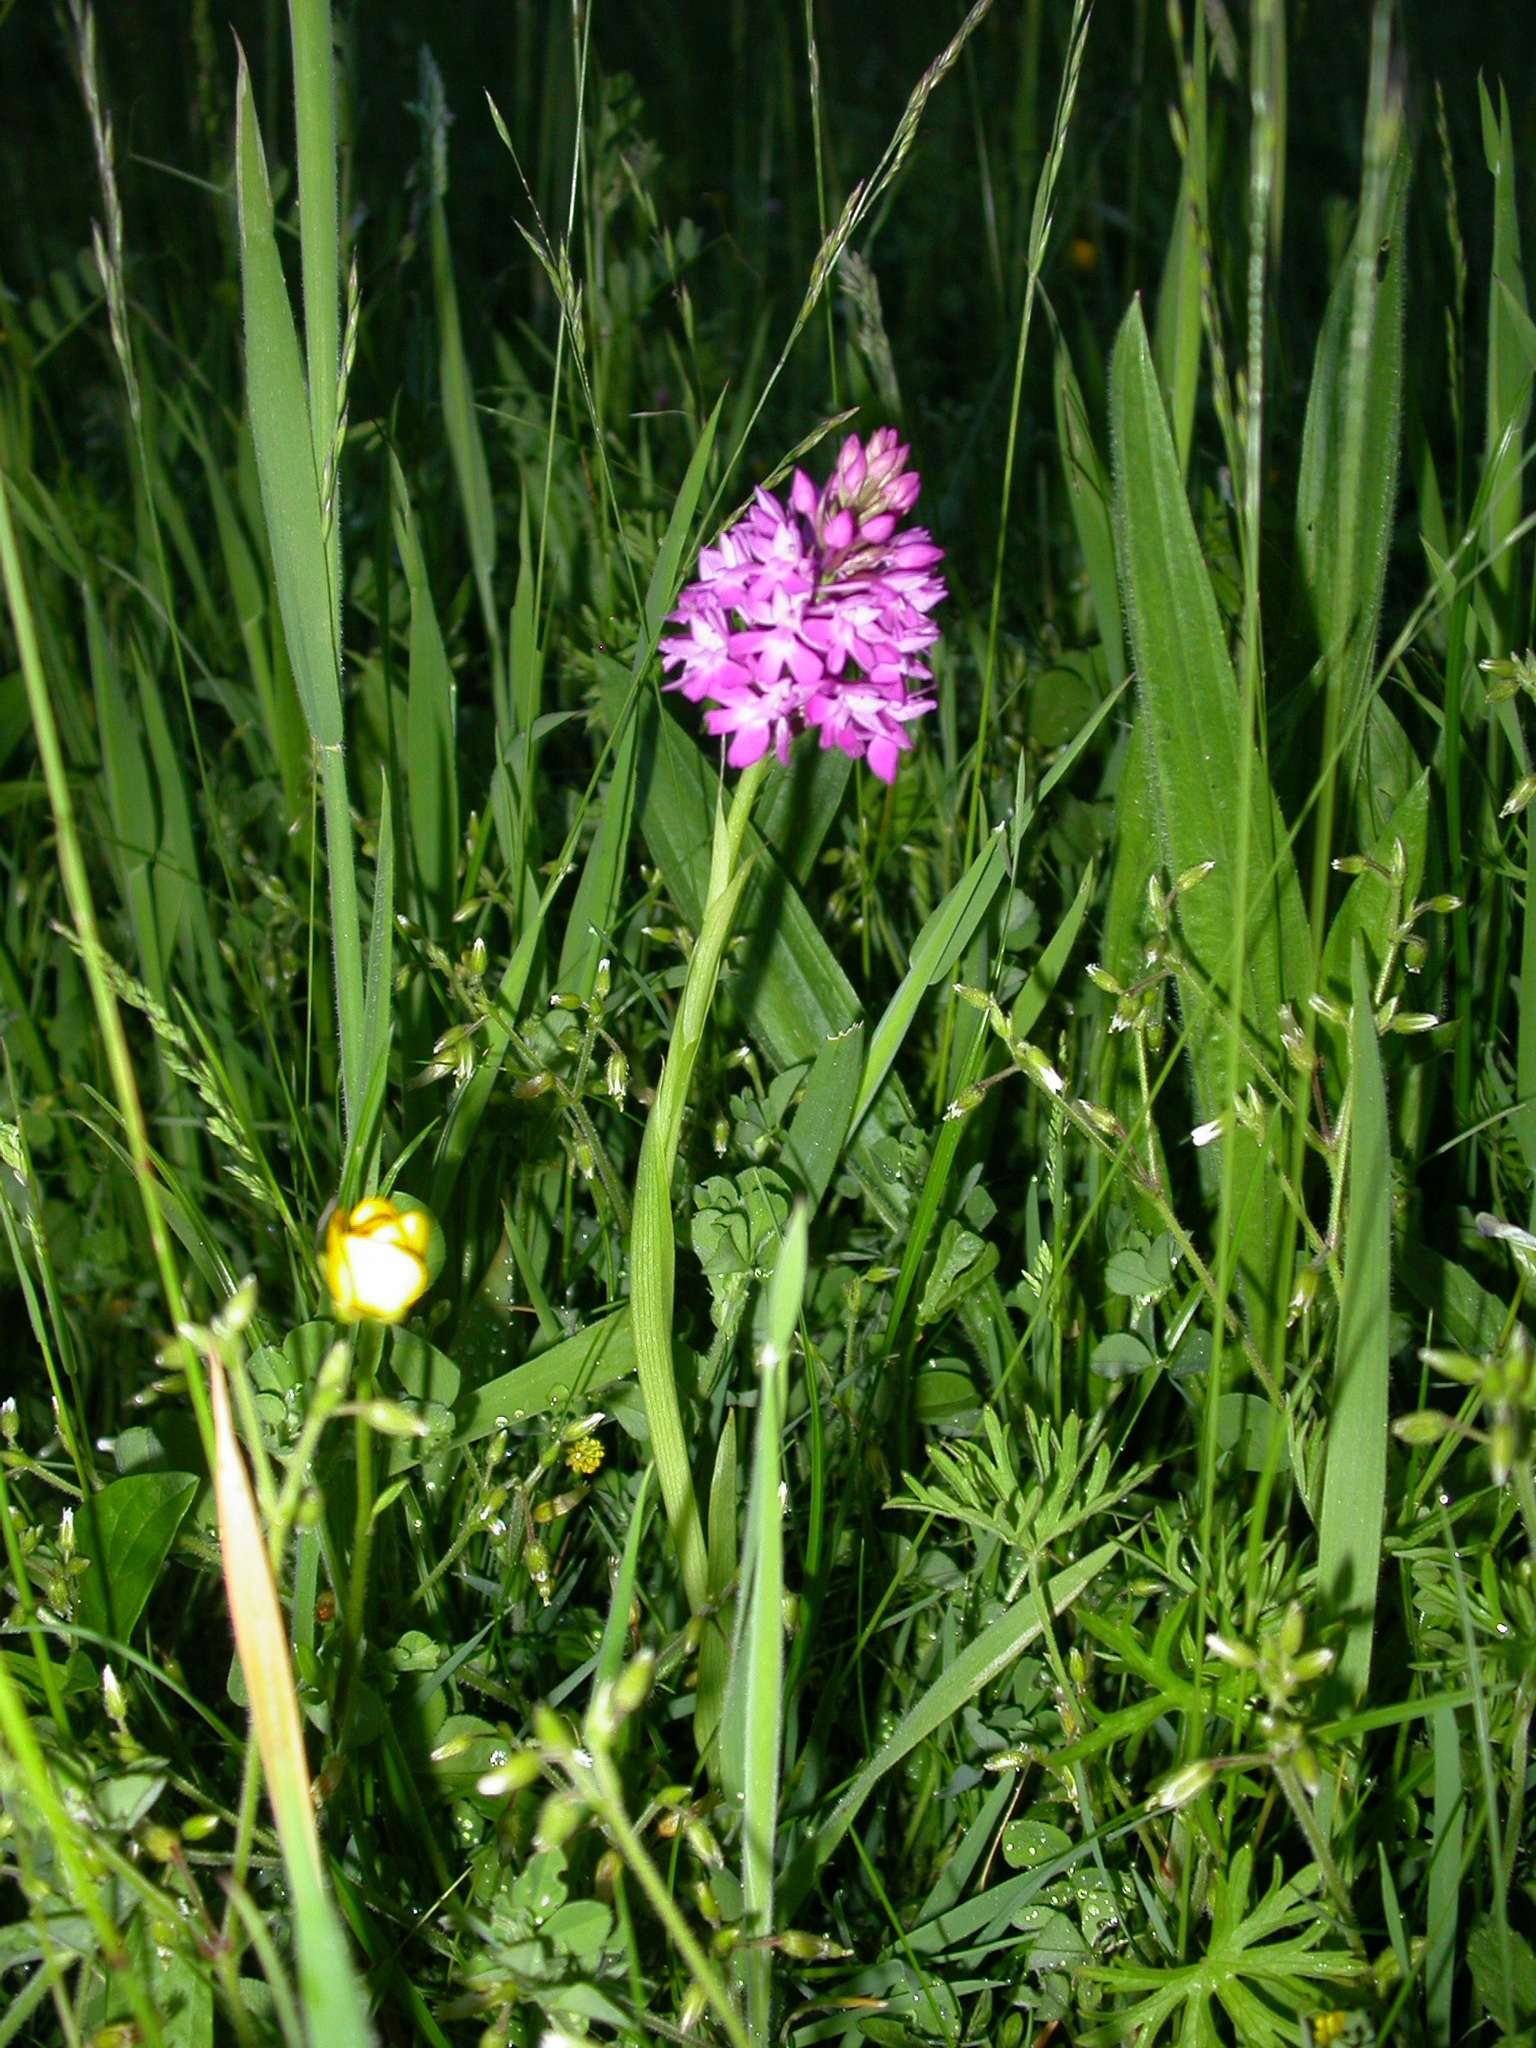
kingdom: Plantae
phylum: Tracheophyta
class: Liliopsida
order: Asparagales
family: Orchidaceae
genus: Anacamptis
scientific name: Anacamptis pyramidalis
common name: Pyramidal orchid
